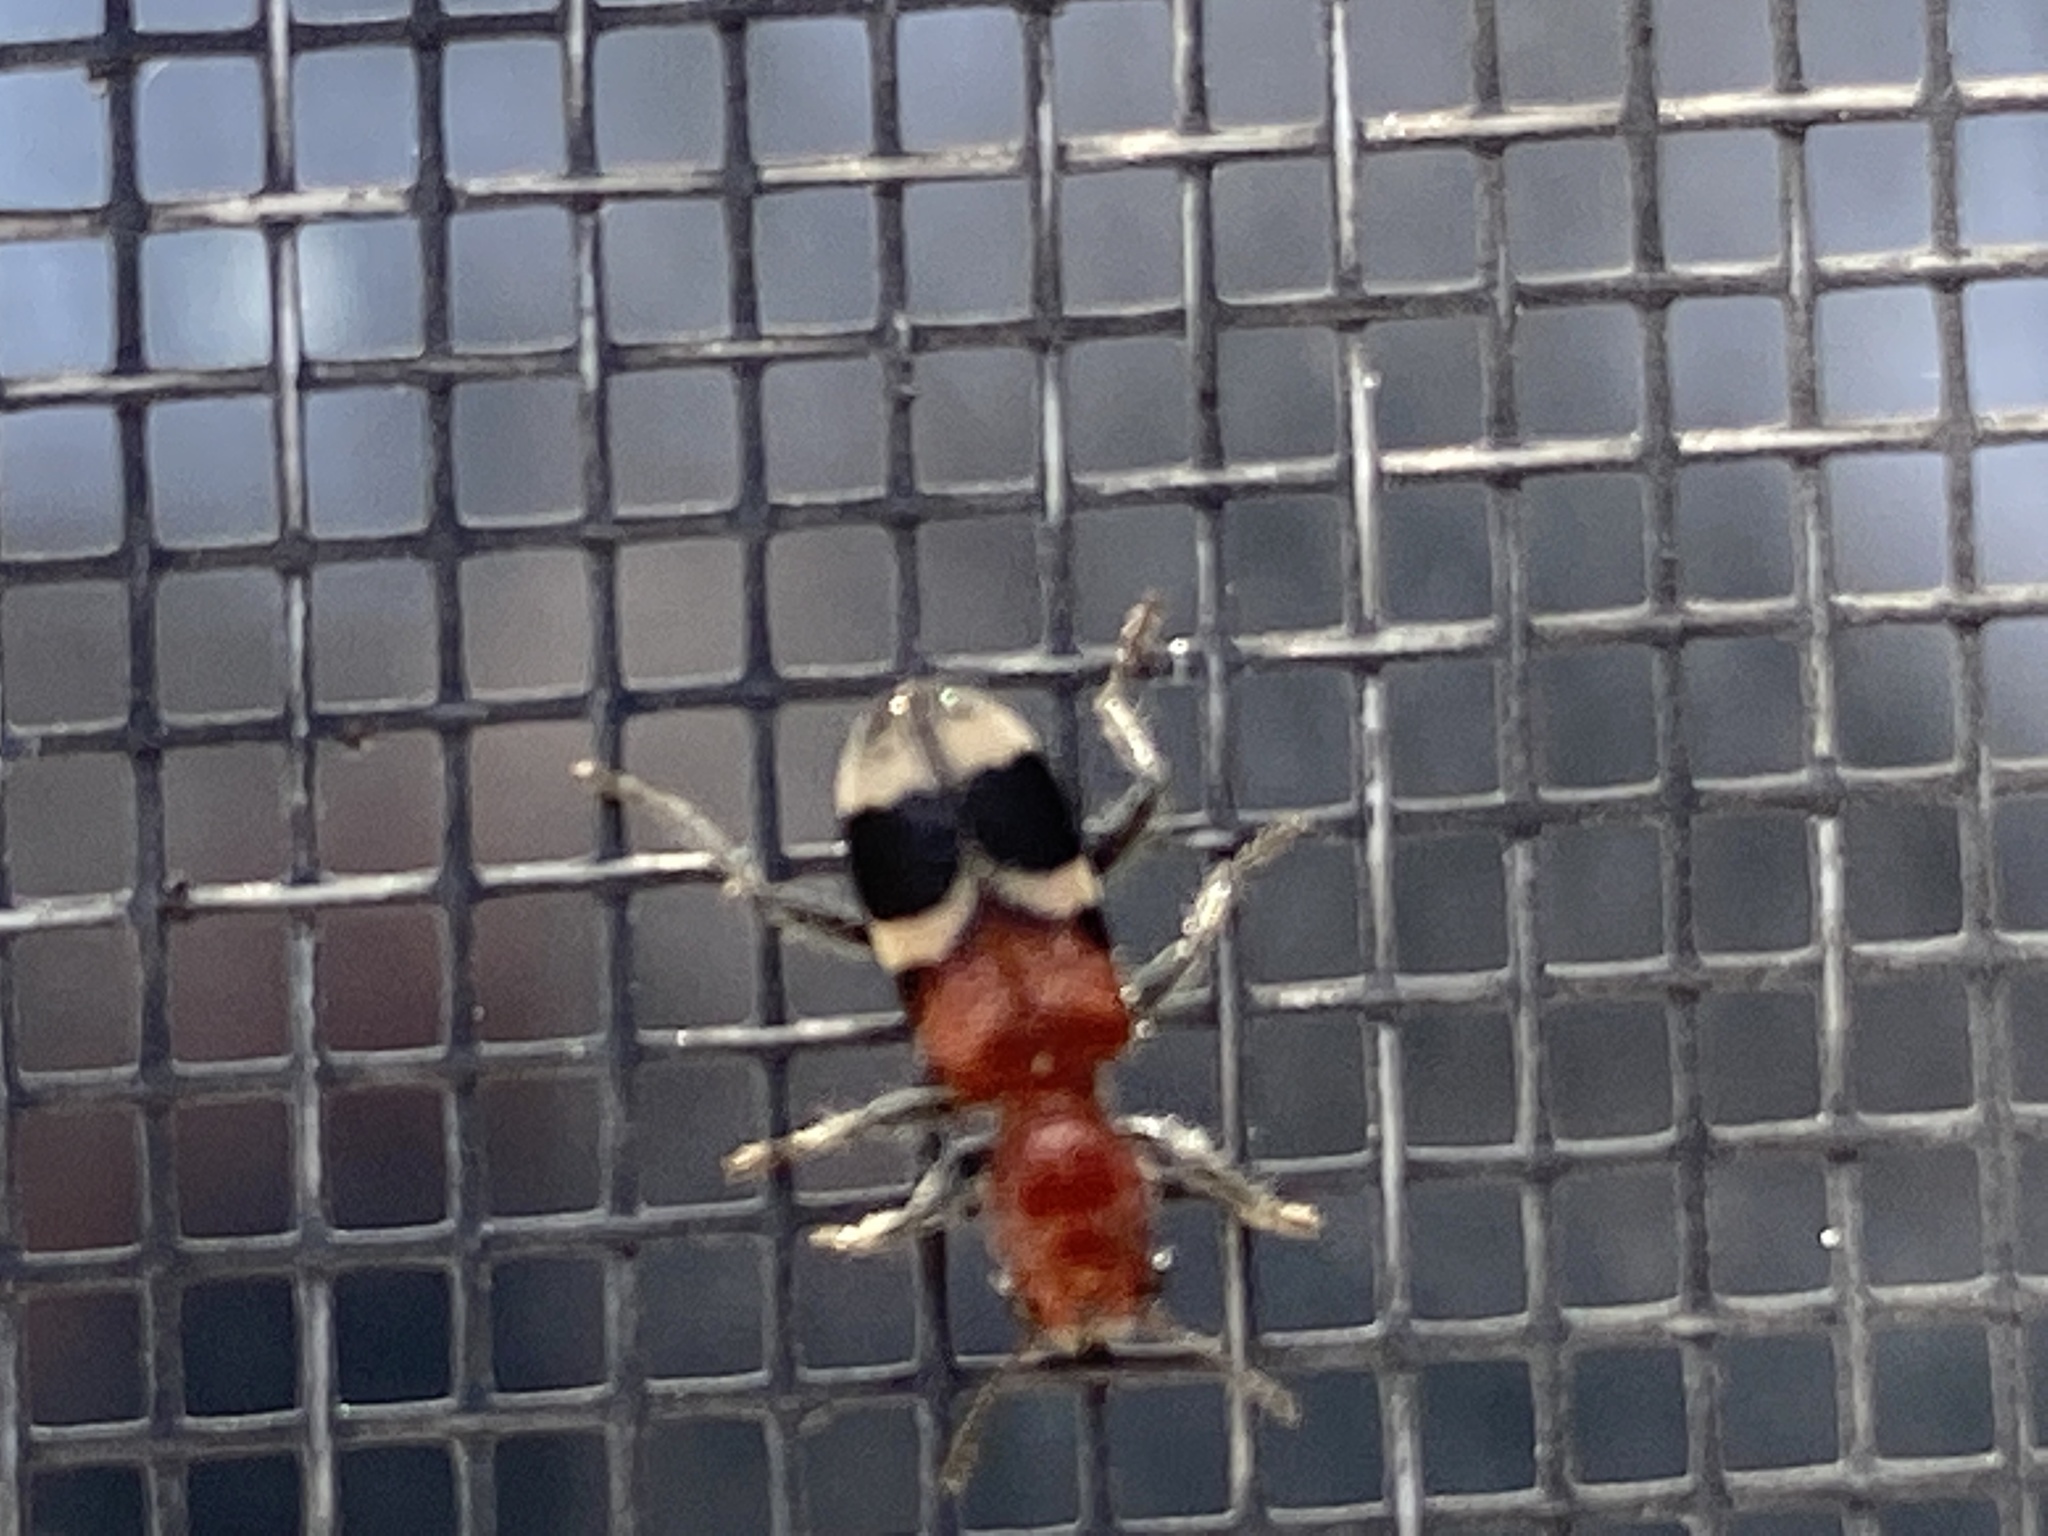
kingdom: Animalia
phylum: Arthropoda
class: Insecta
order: Coleoptera
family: Cleridae
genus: Enoclerus
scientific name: Enoclerus nigripes
